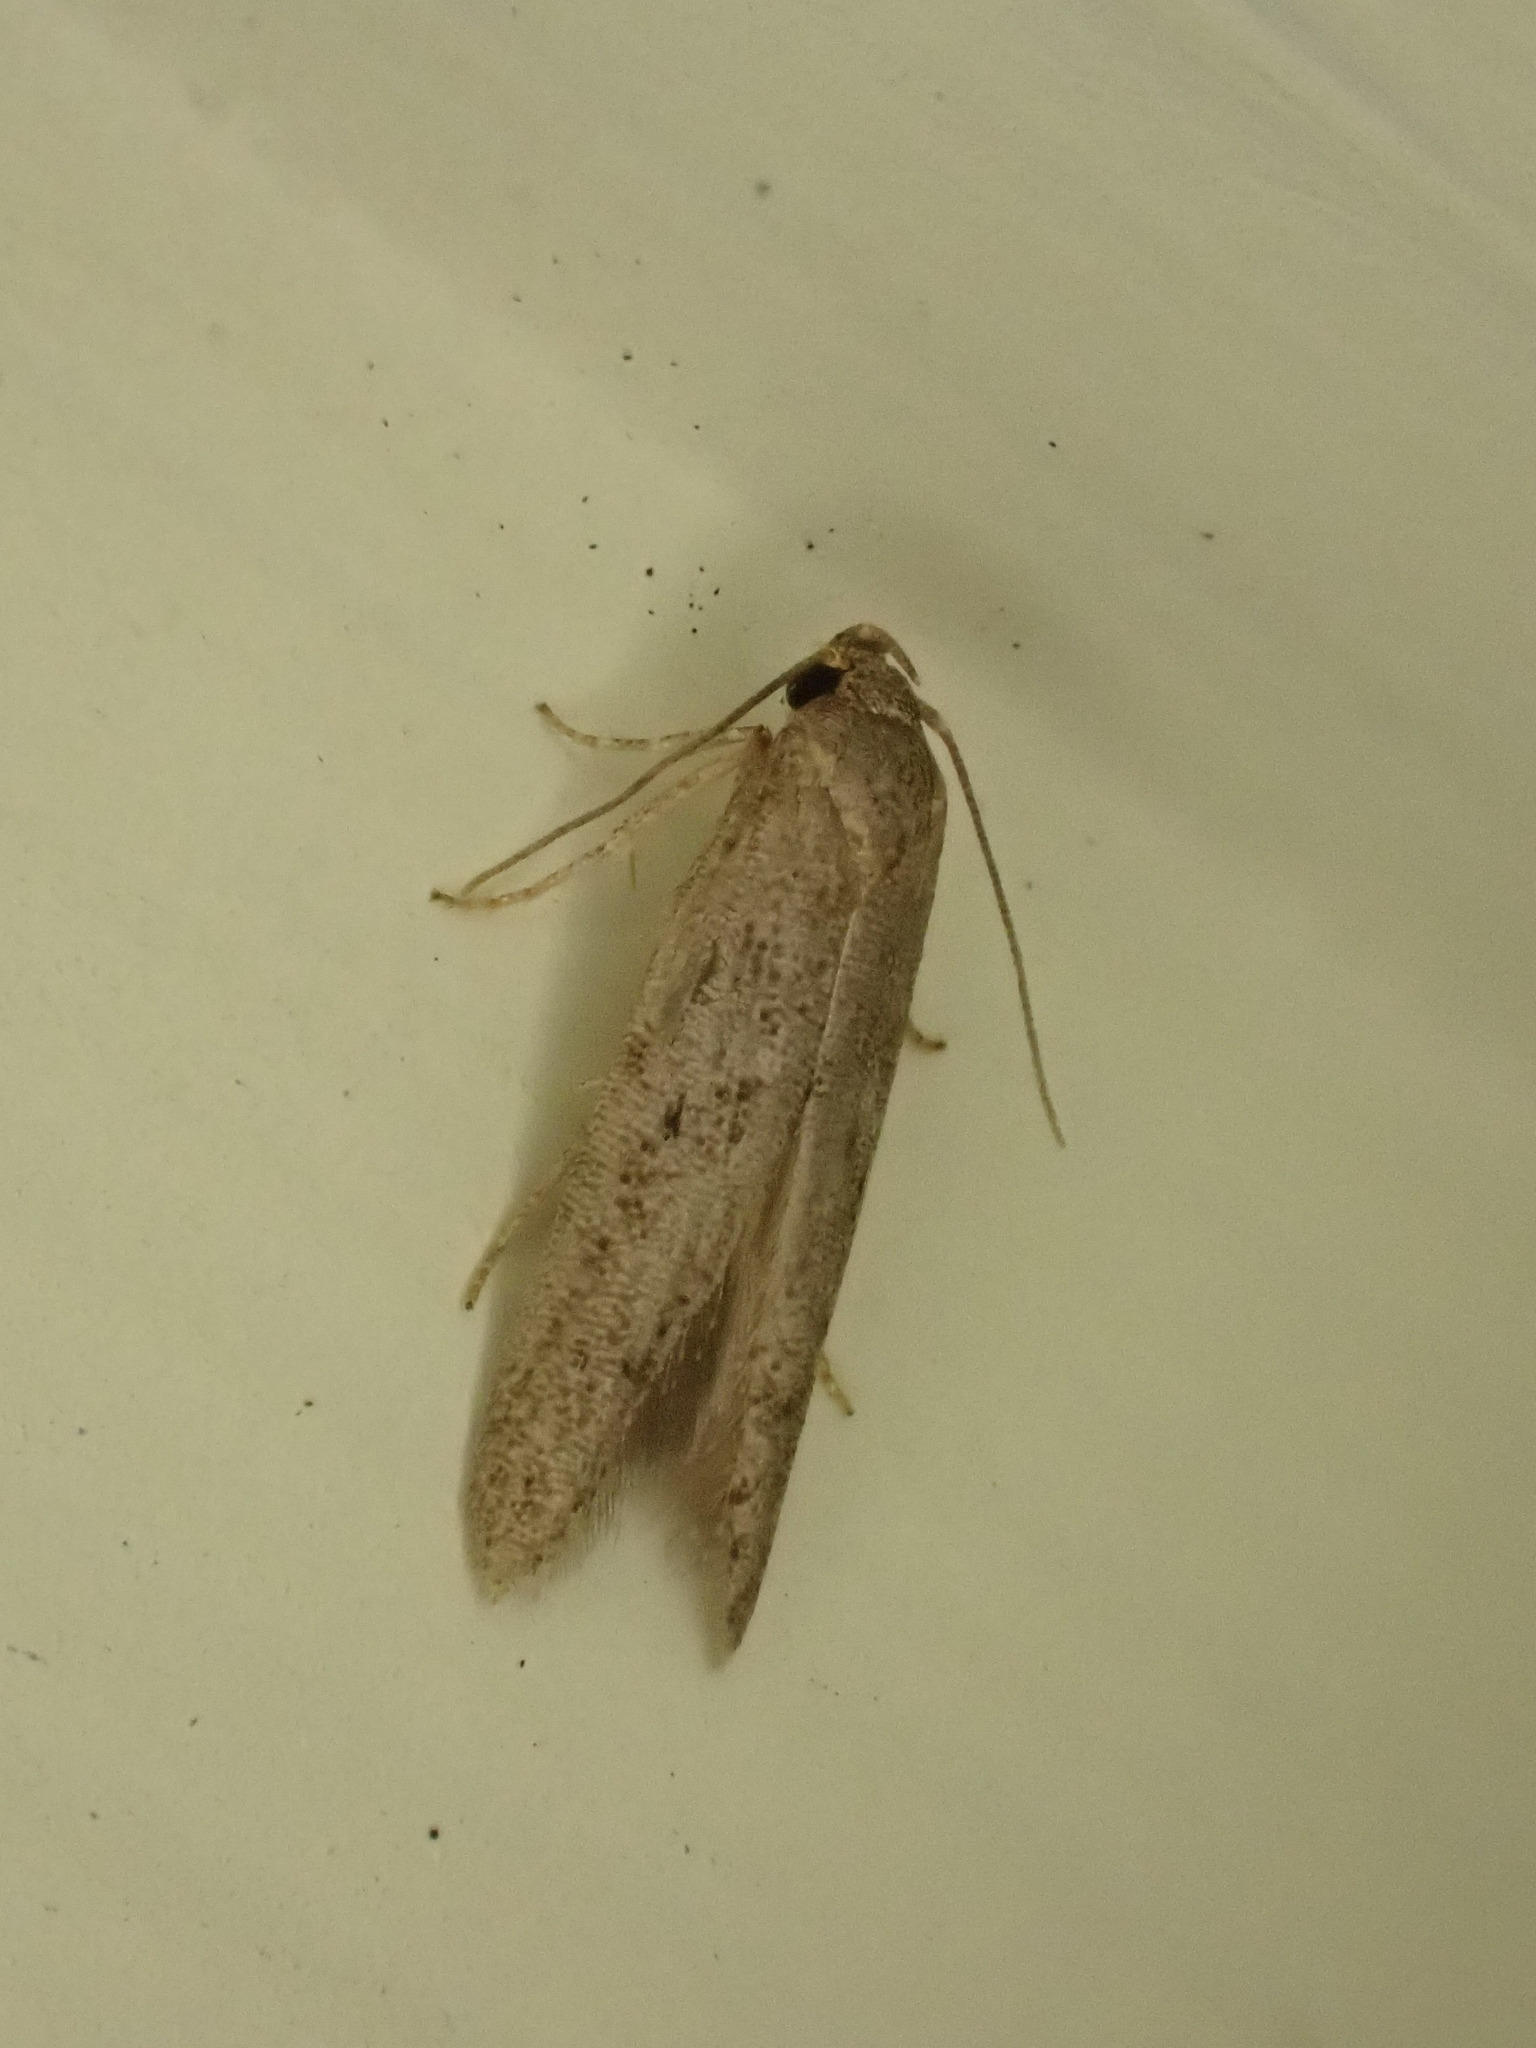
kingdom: Animalia
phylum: Arthropoda
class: Insecta
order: Lepidoptera
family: Blastobasidae
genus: Blastobasis
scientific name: Blastobasis tarda
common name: Blastobasid moth
